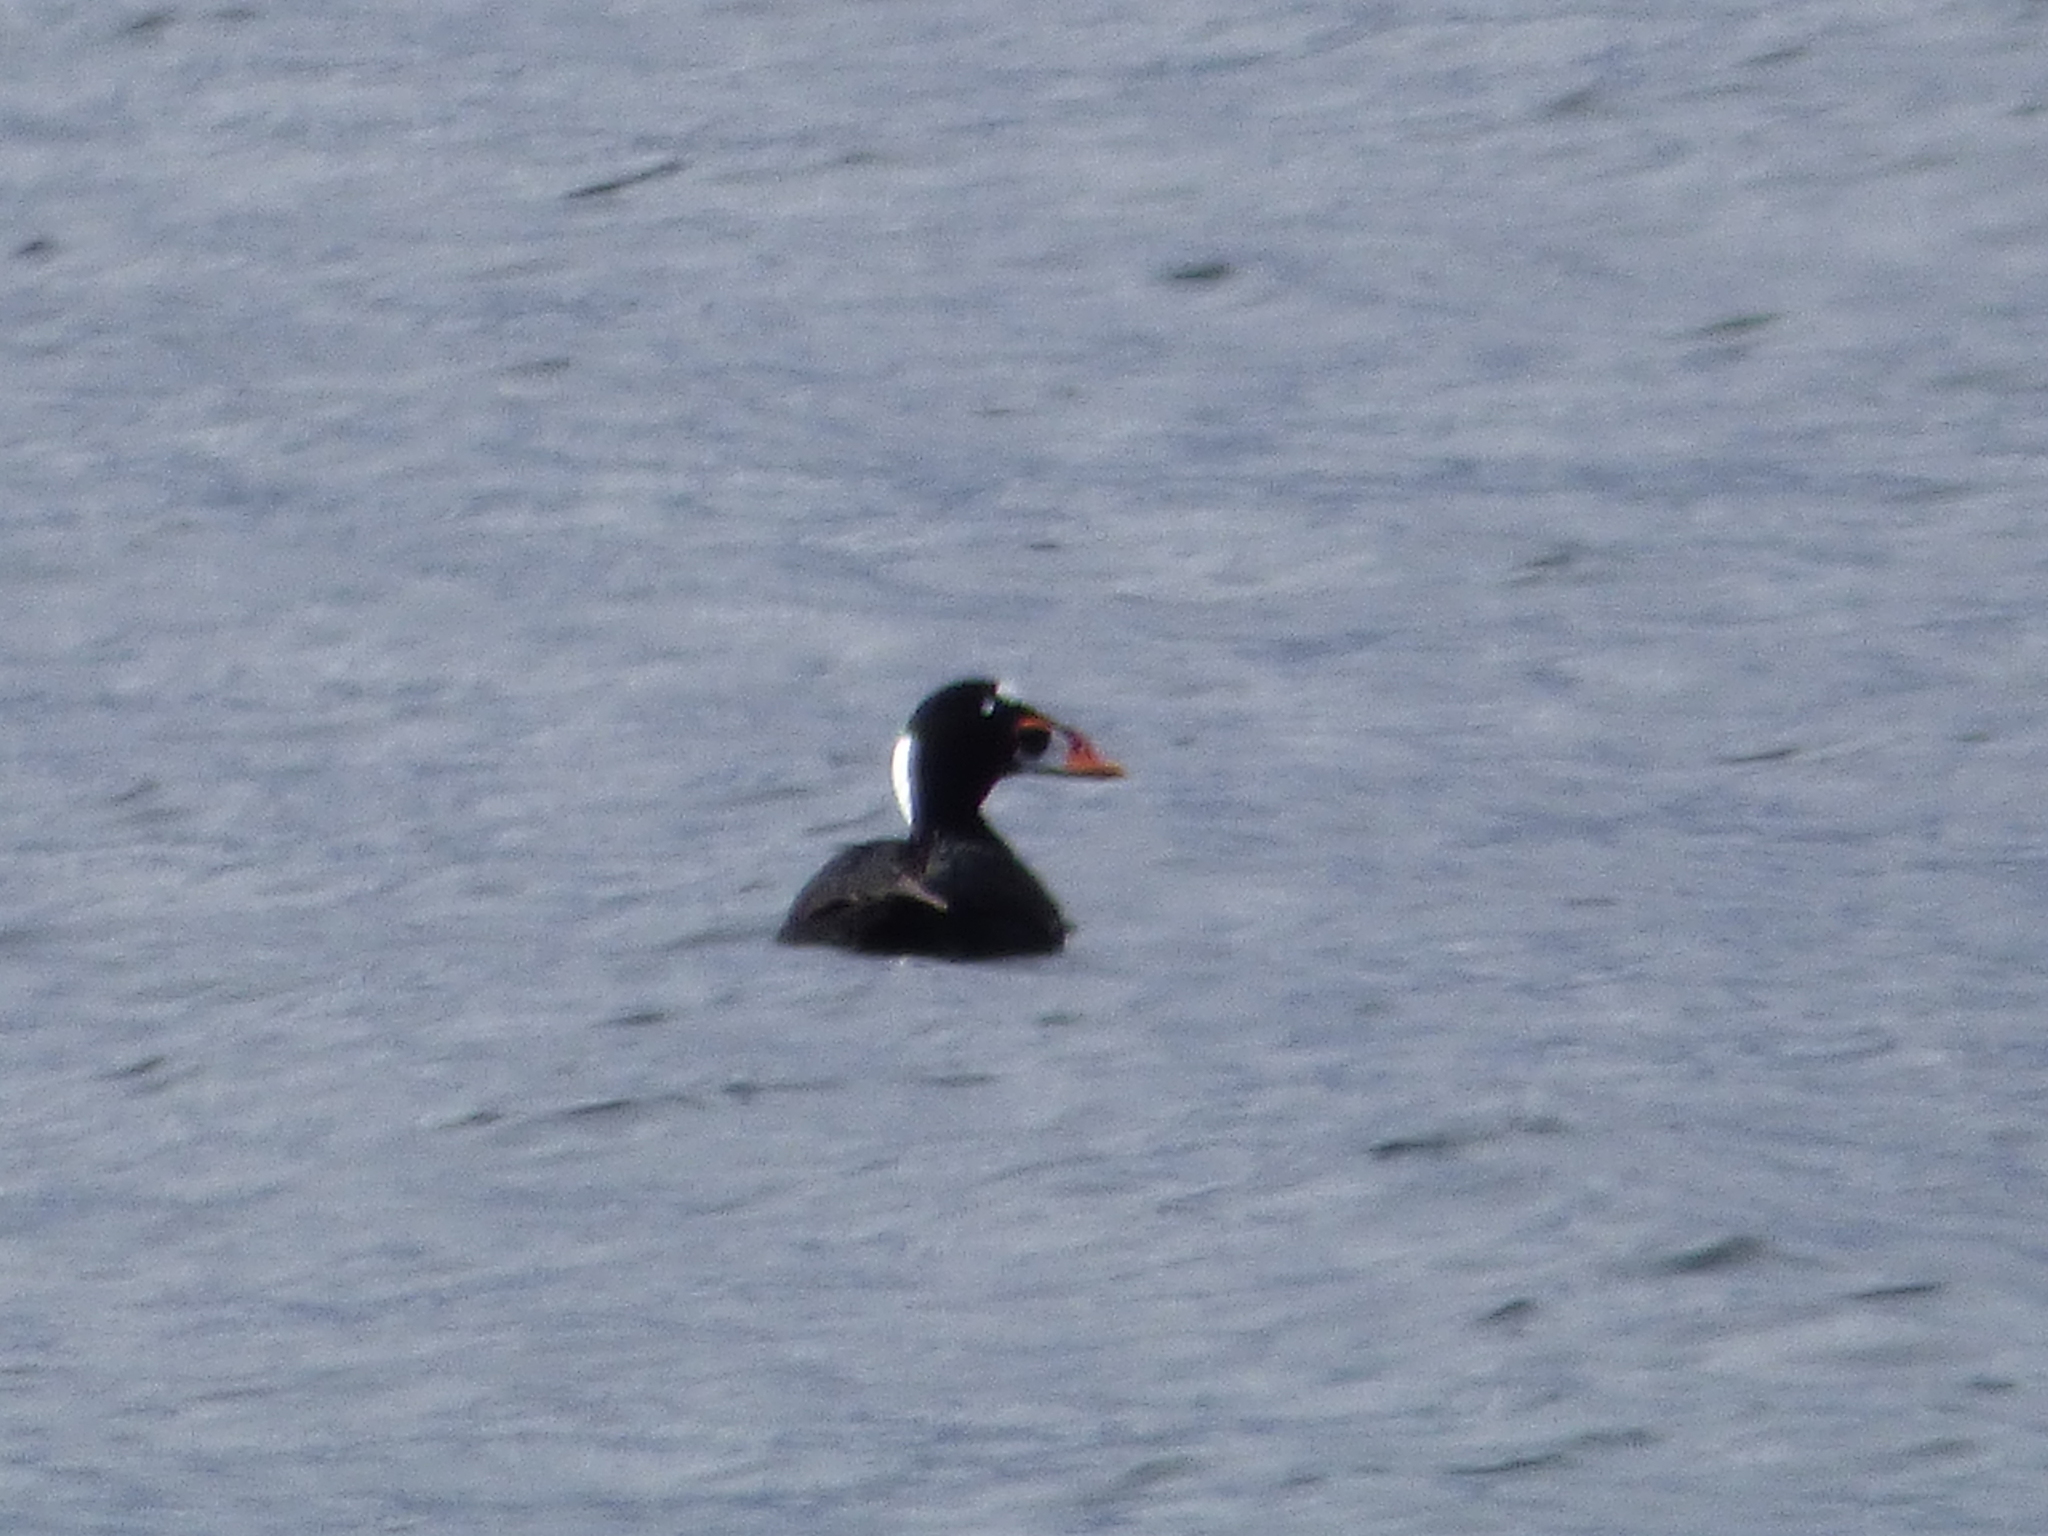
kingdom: Animalia
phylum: Chordata
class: Aves
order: Anseriformes
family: Anatidae
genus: Melanitta
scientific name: Melanitta perspicillata
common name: Surf scoter
